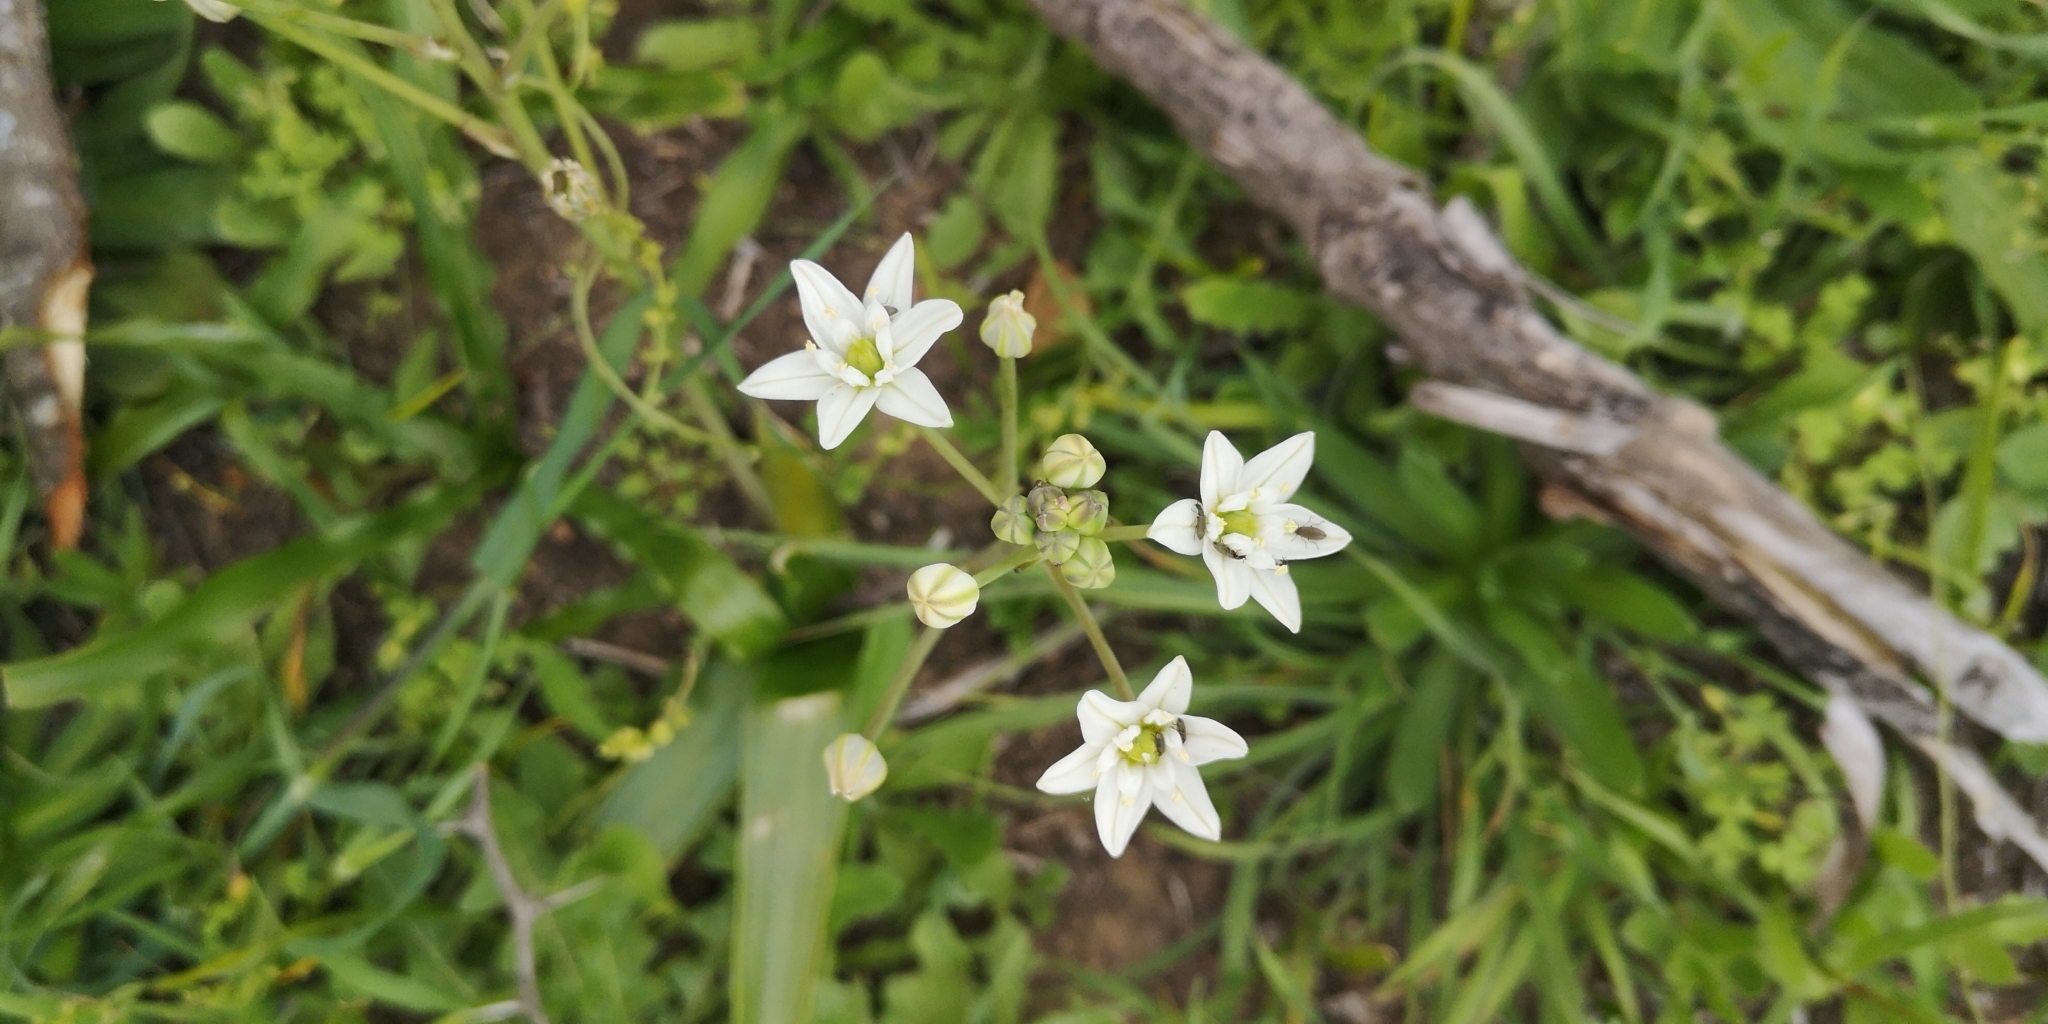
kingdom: Plantae
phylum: Tracheophyta
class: Liliopsida
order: Asparagales
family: Asparagaceae
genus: Oziroe
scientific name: Oziroe arida
